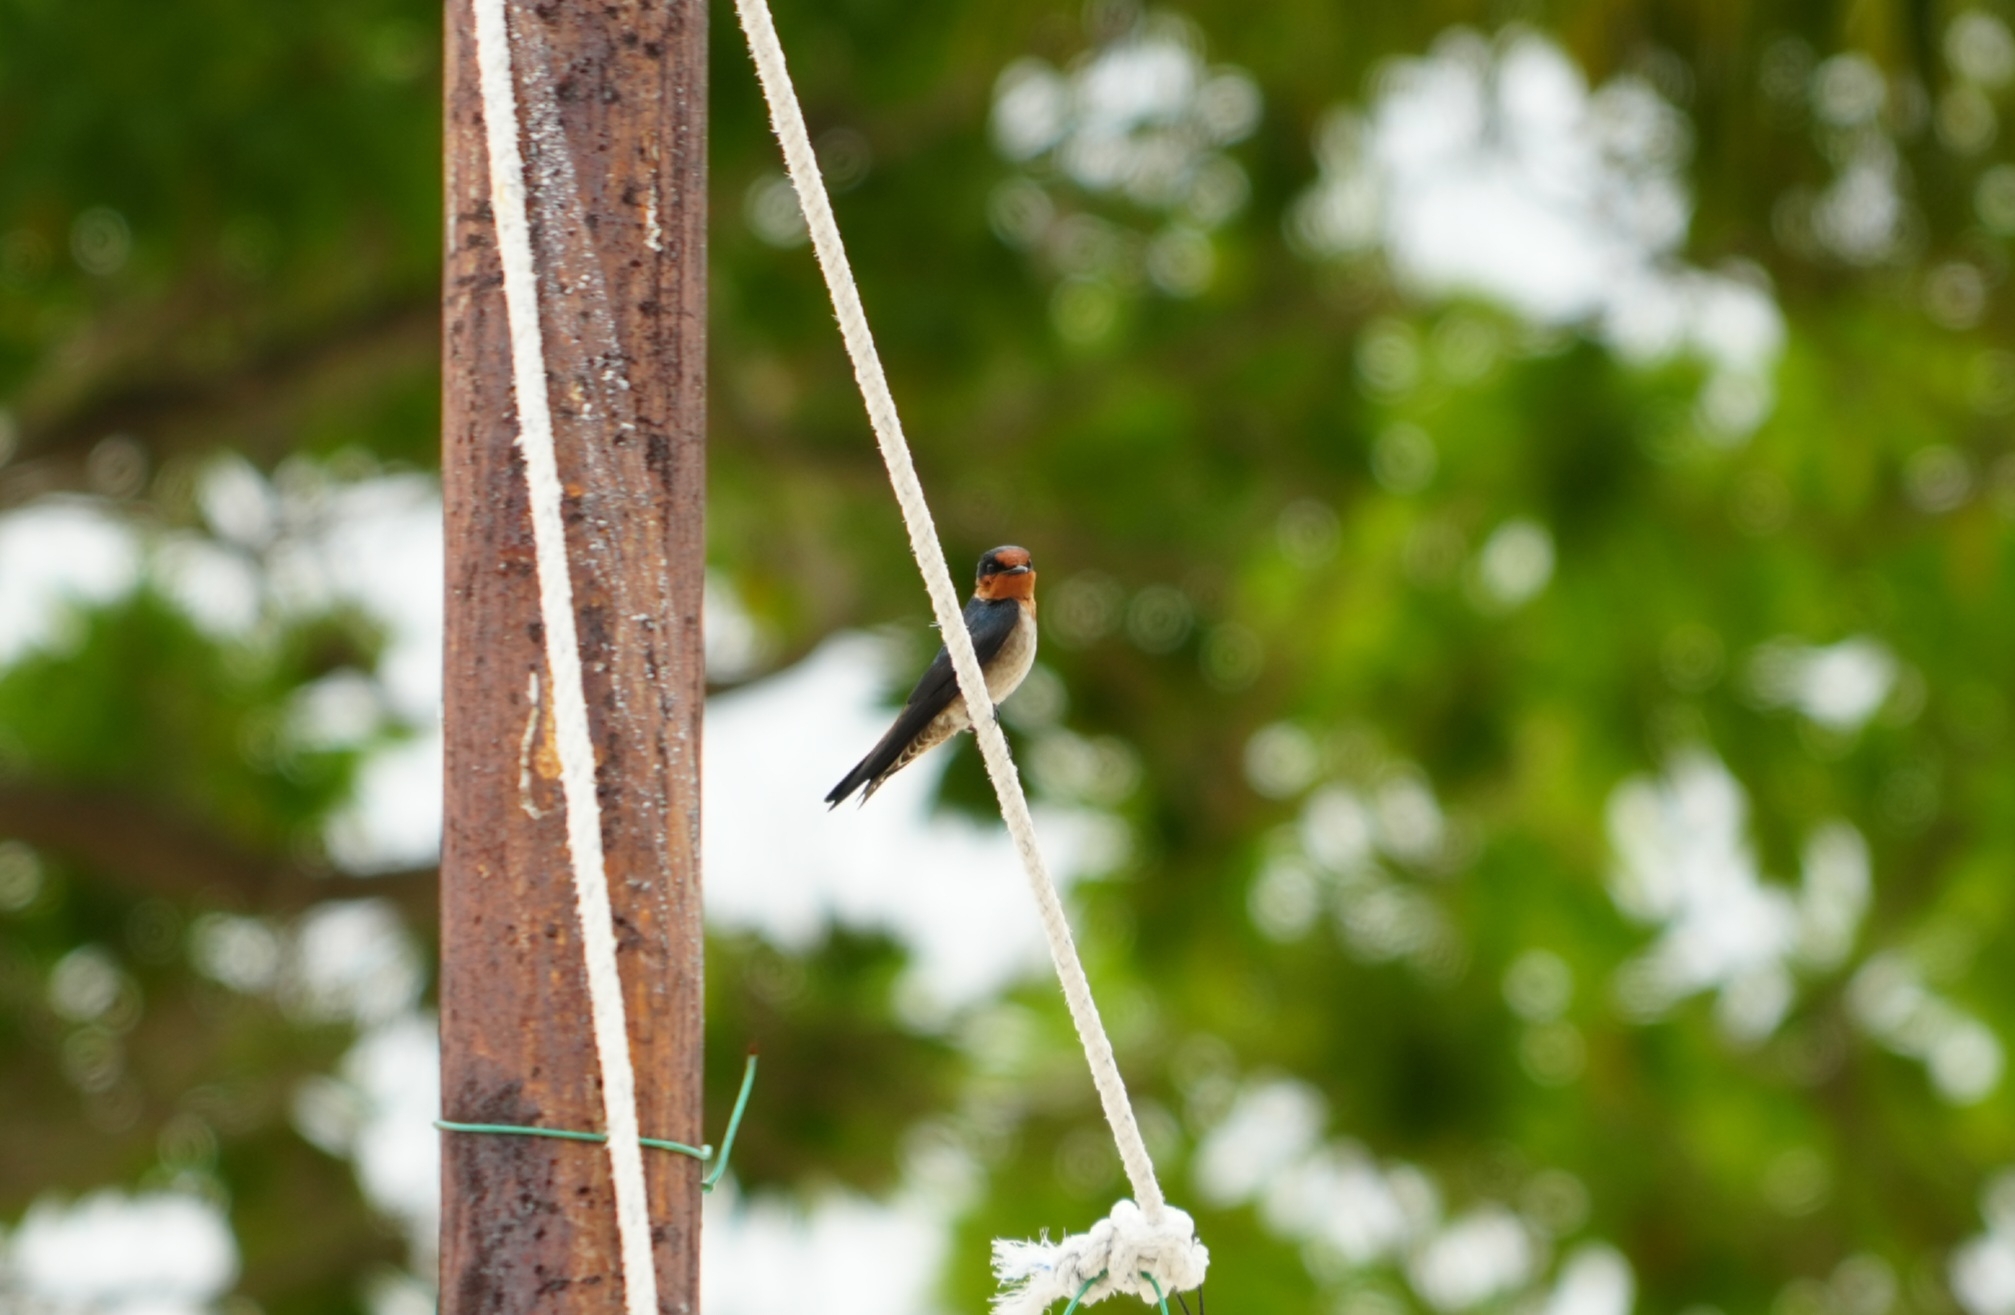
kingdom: Animalia
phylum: Chordata
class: Aves
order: Passeriformes
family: Hirundinidae
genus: Hirundo
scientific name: Hirundo tahitica
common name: Pacific swallow
